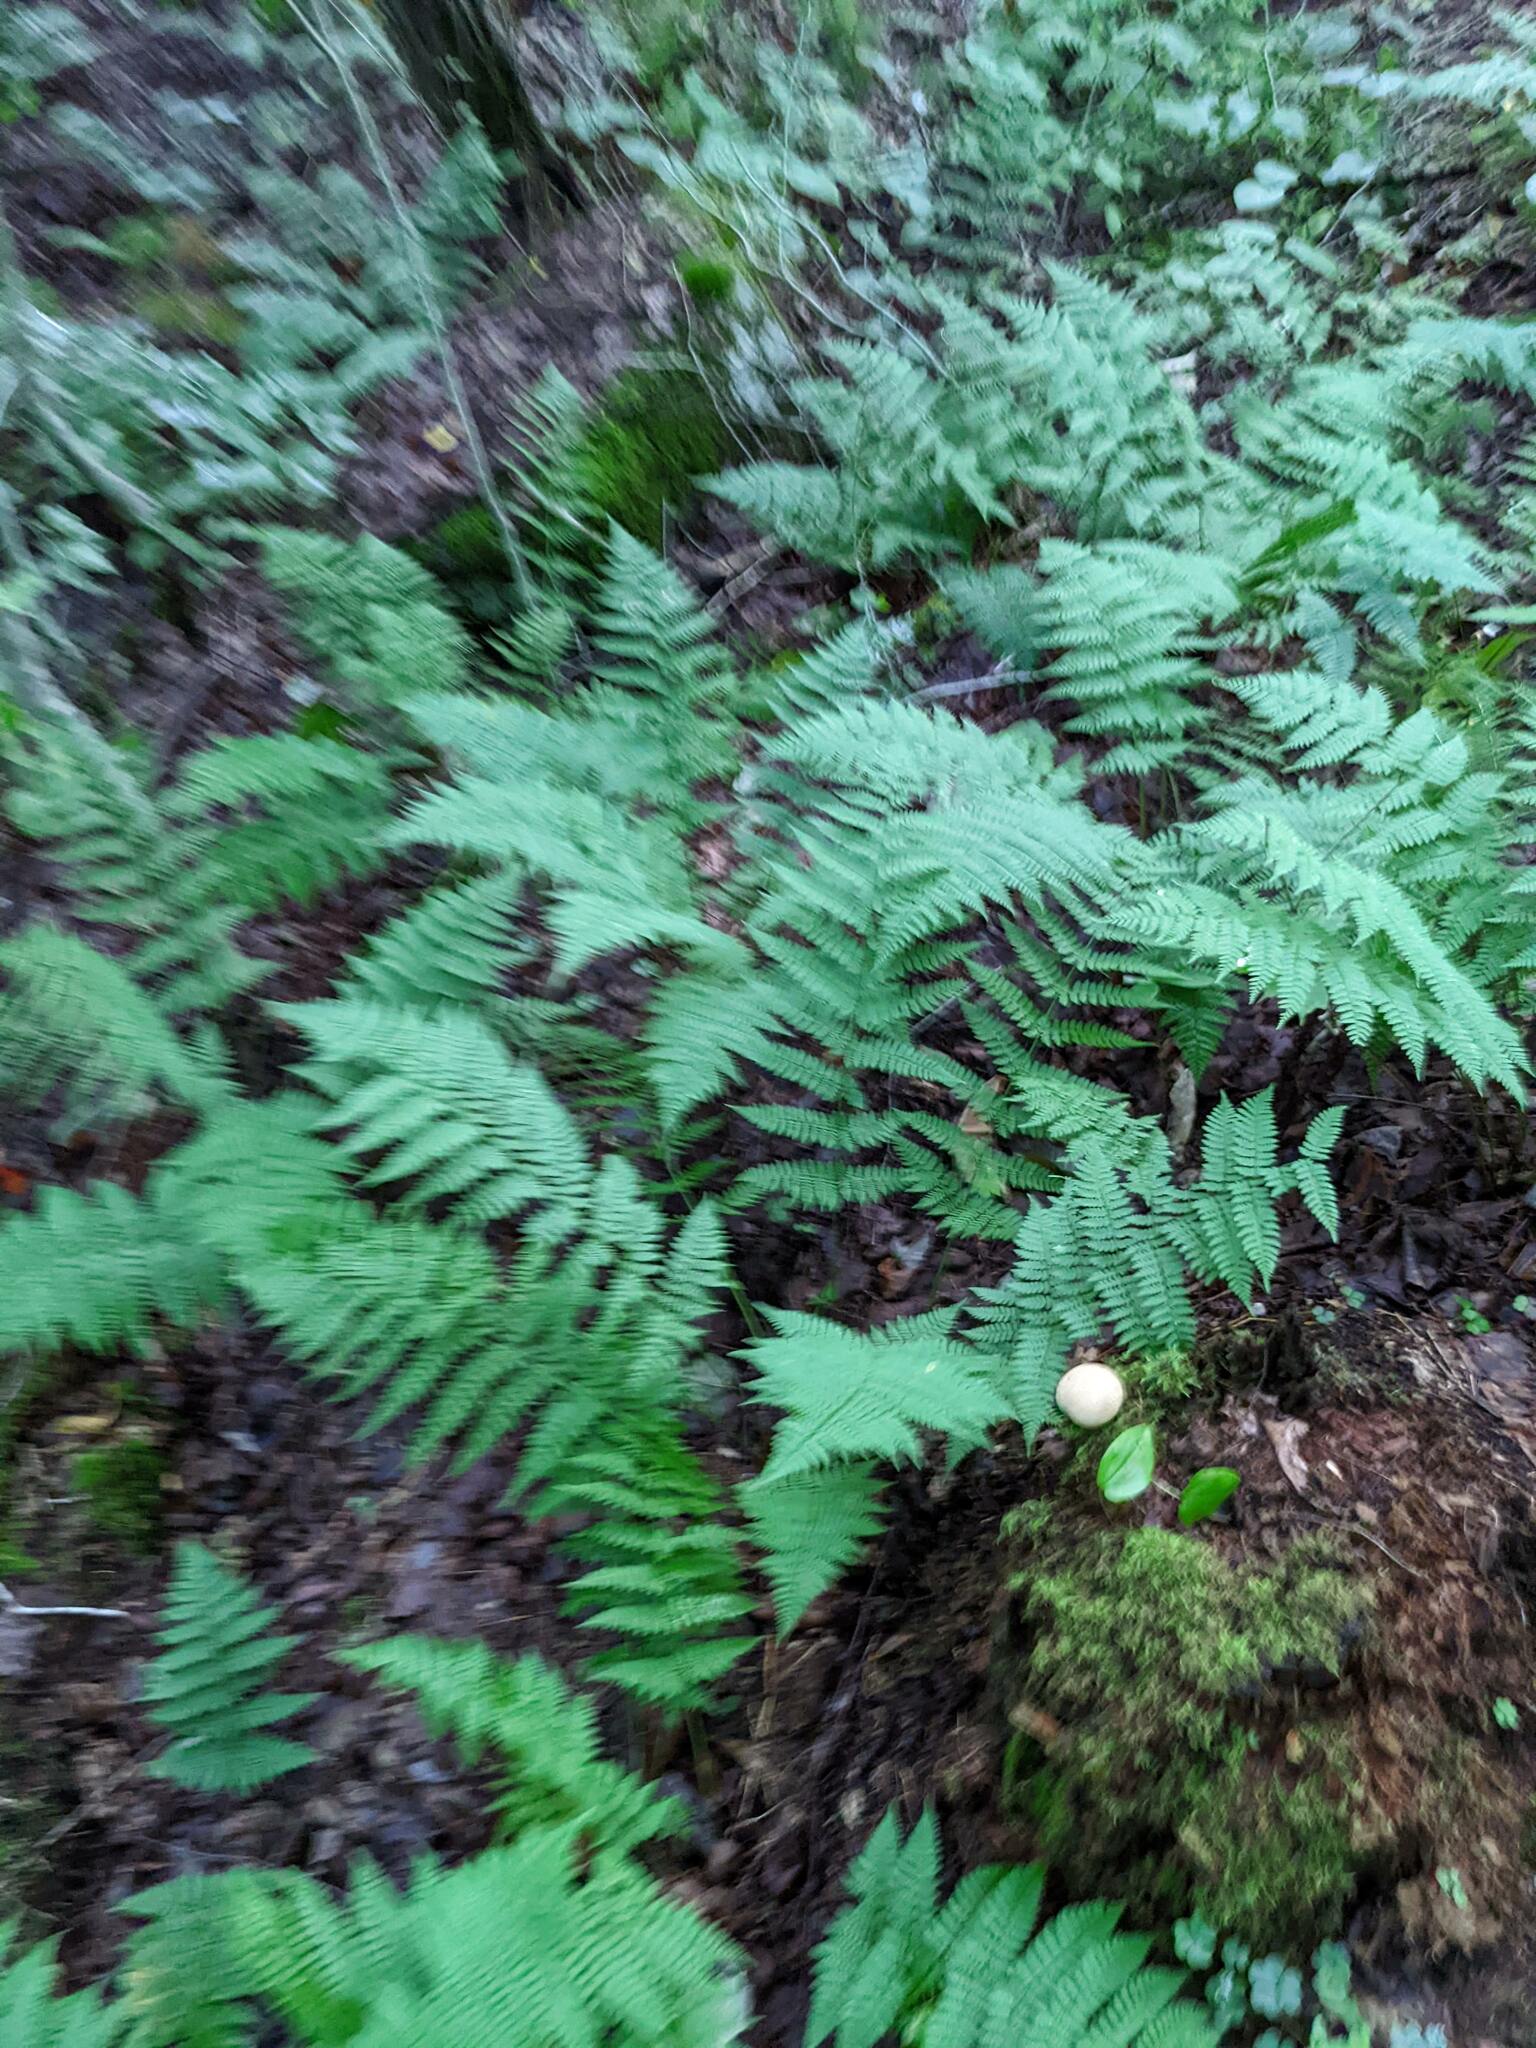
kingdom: Plantae
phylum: Tracheophyta
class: Polypodiopsida
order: Polypodiales
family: Dryopteridaceae
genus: Dryopteris
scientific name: Dryopteris intermedia
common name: Evergreen wood fern
